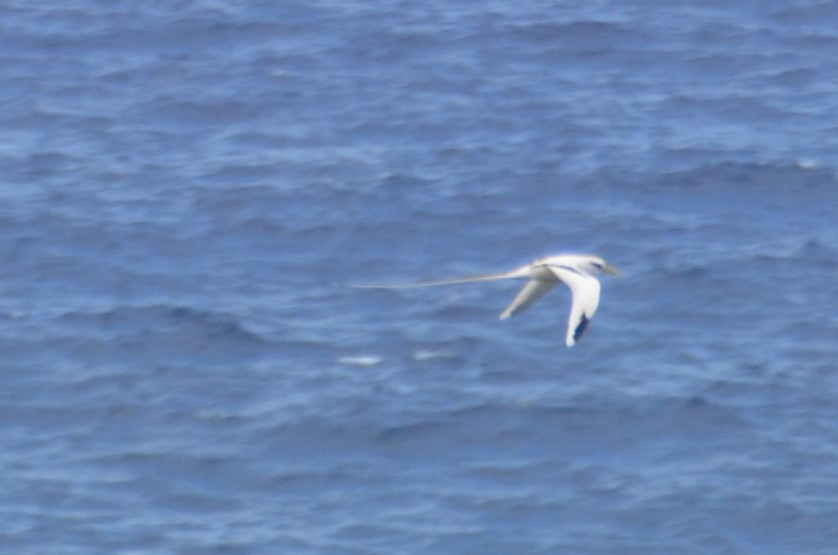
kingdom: Animalia
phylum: Chordata
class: Aves
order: Phaethontiformes
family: Phaethontidae
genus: Phaethon
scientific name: Phaethon lepturus
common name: White-tailed tropicbird
